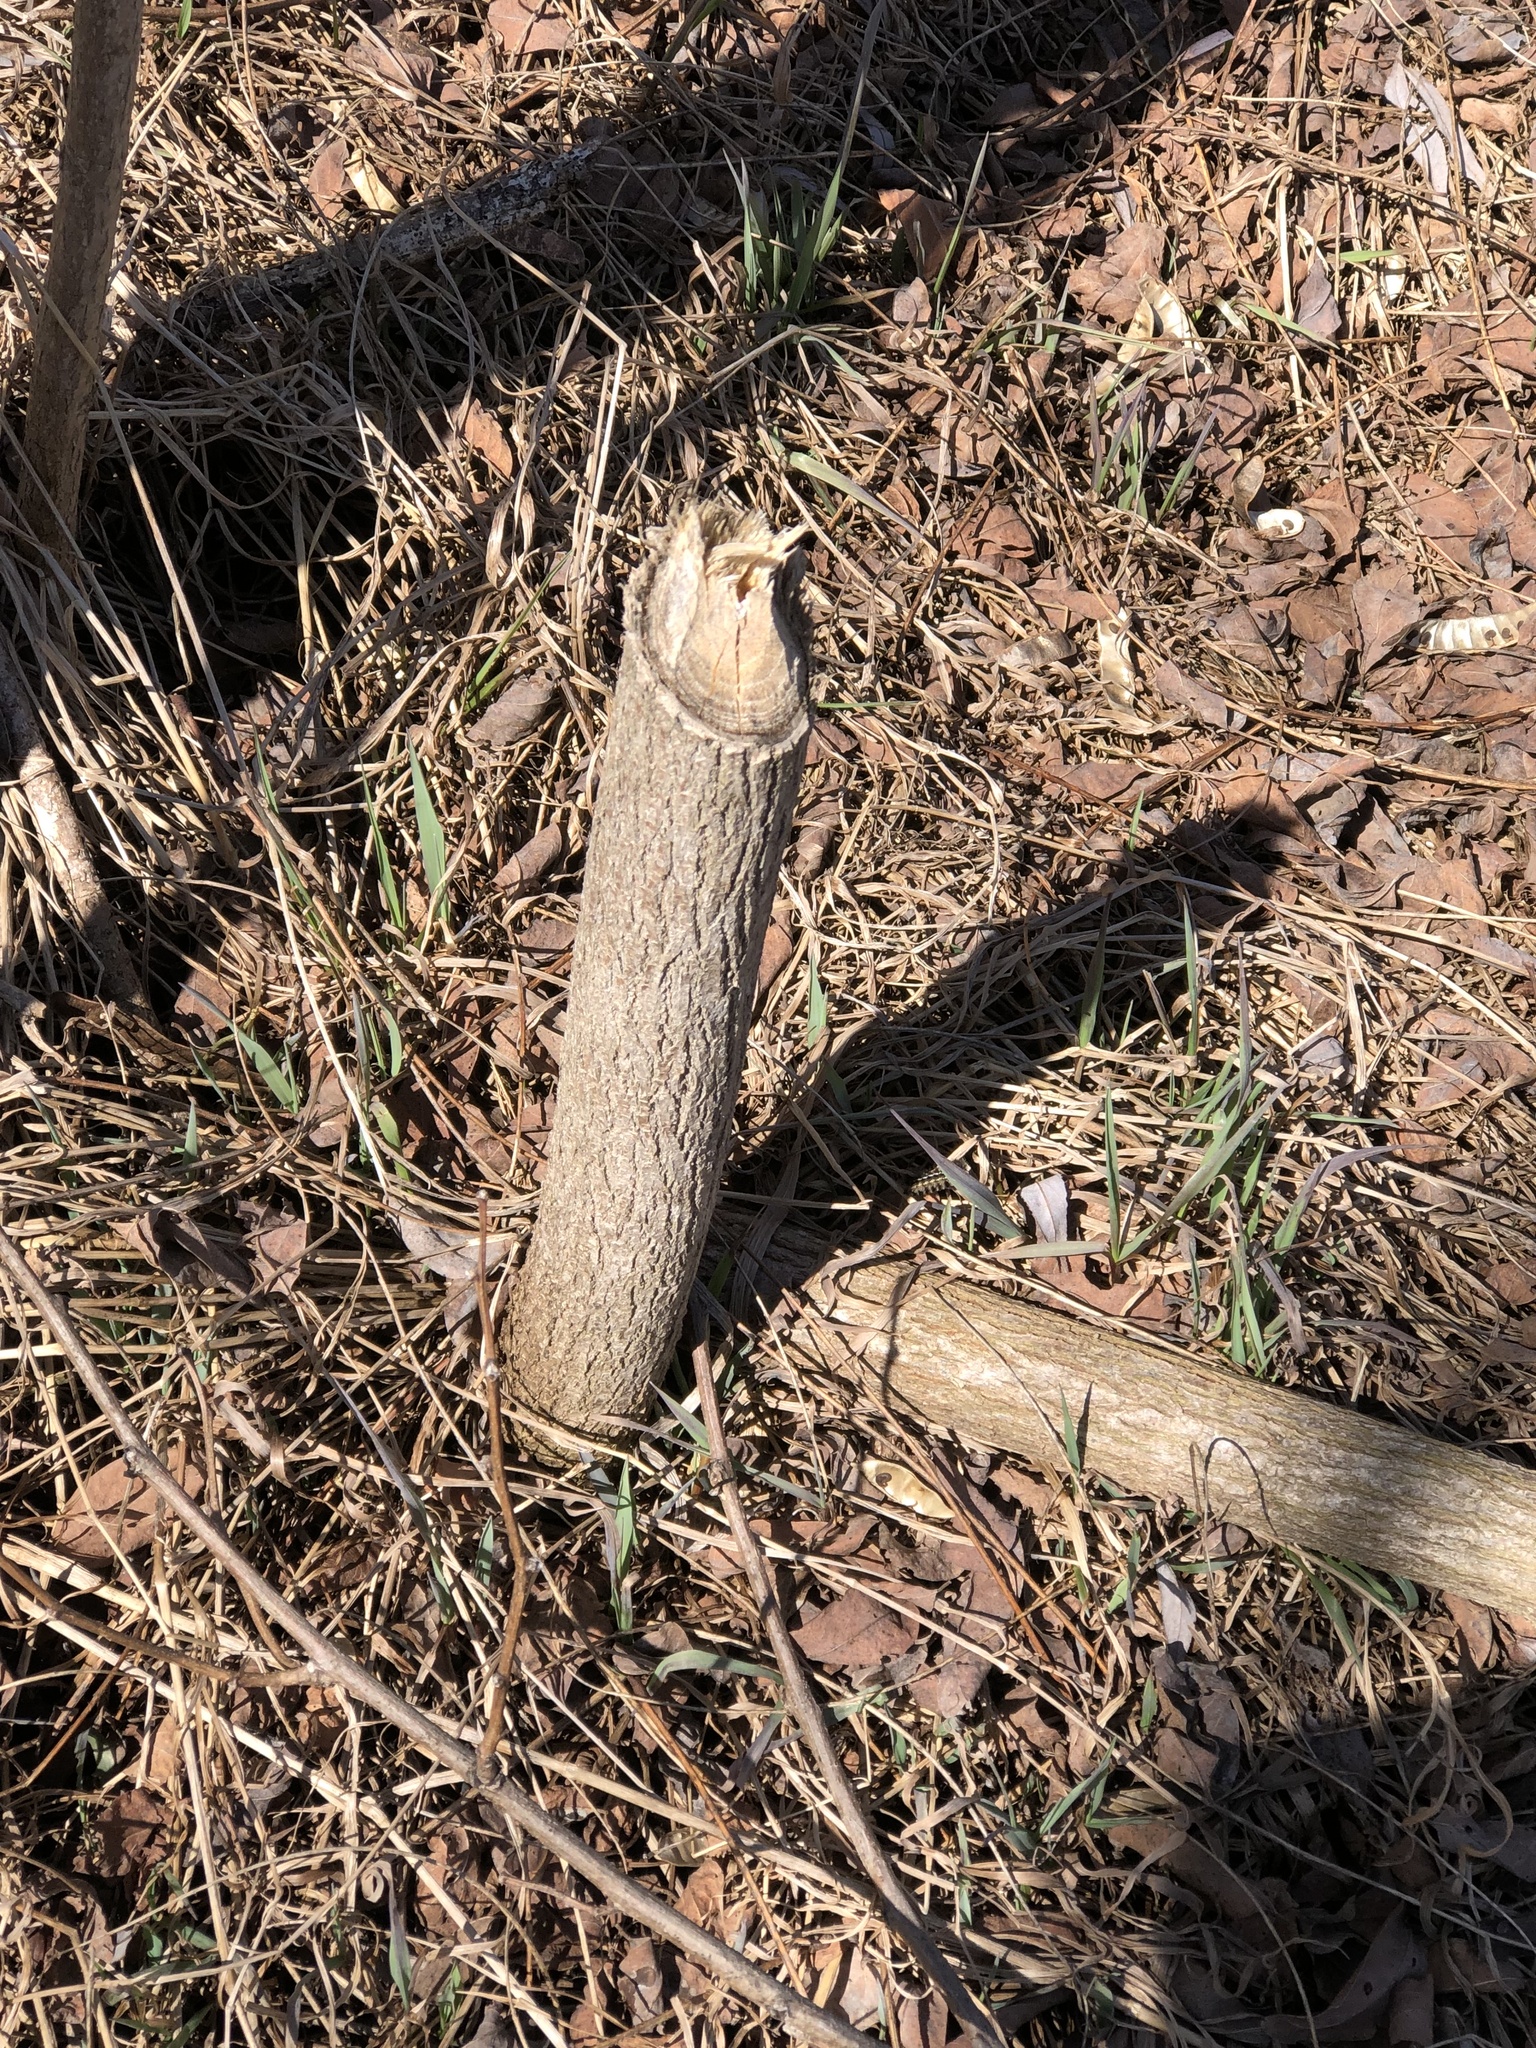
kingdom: Animalia
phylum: Chordata
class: Mammalia
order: Rodentia
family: Castoridae
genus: Castor
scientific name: Castor canadensis
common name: American beaver
